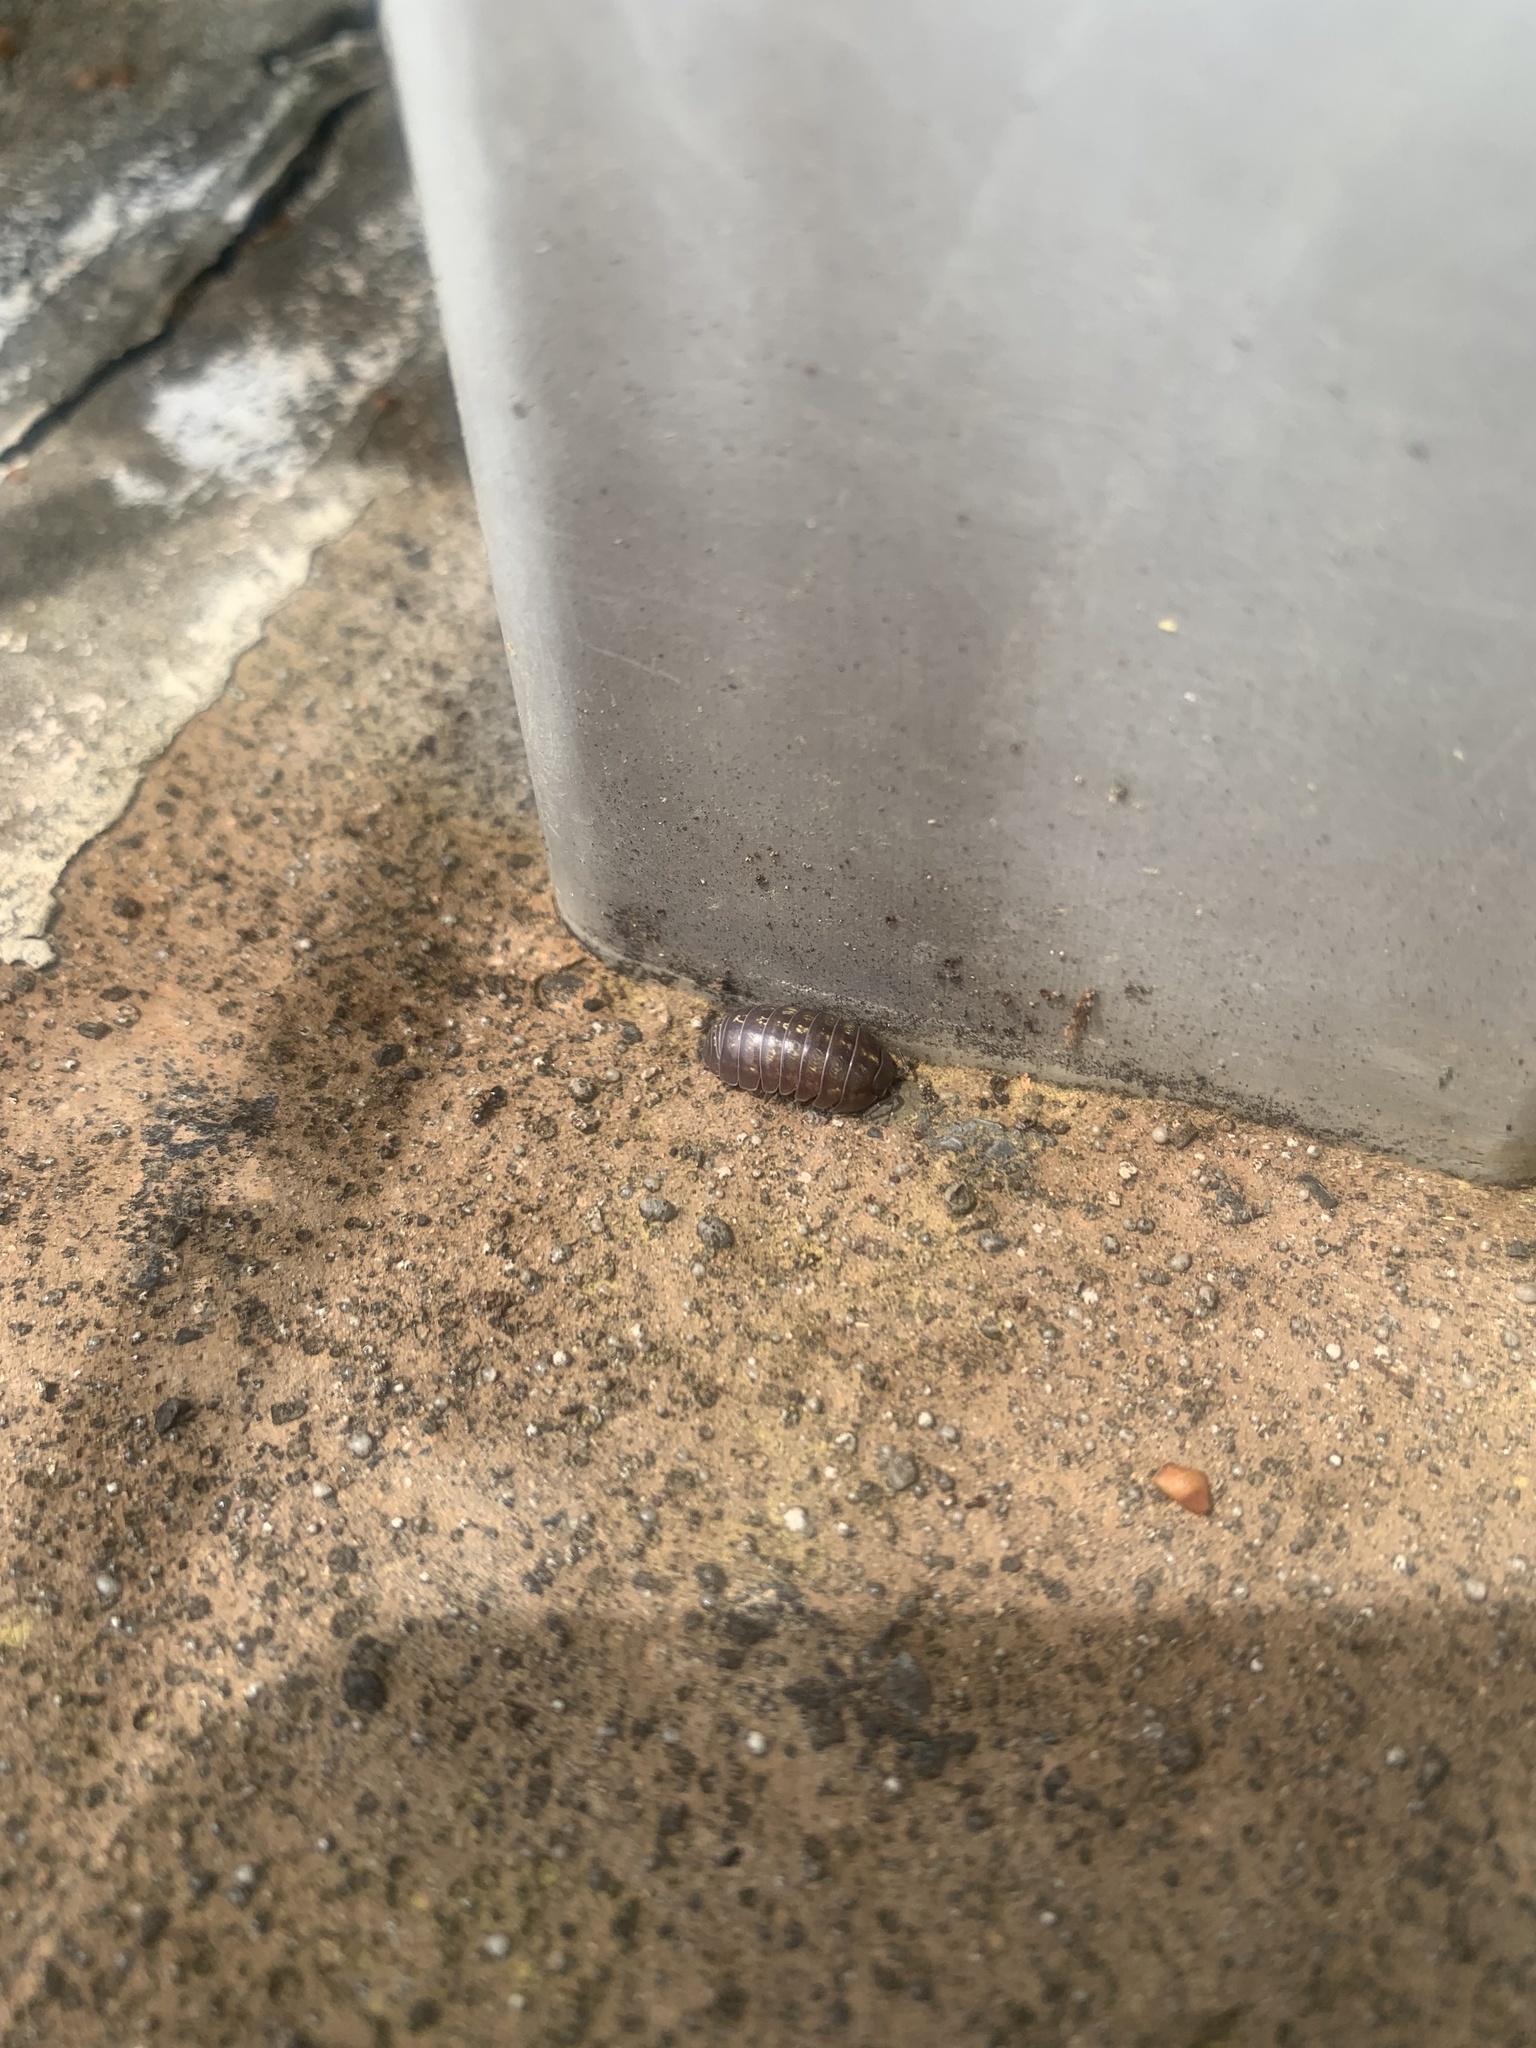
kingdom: Animalia
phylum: Arthropoda
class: Malacostraca
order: Isopoda
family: Armadillidiidae
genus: Armadillidium
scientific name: Armadillidium vulgare
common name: Common pill woodlouse
